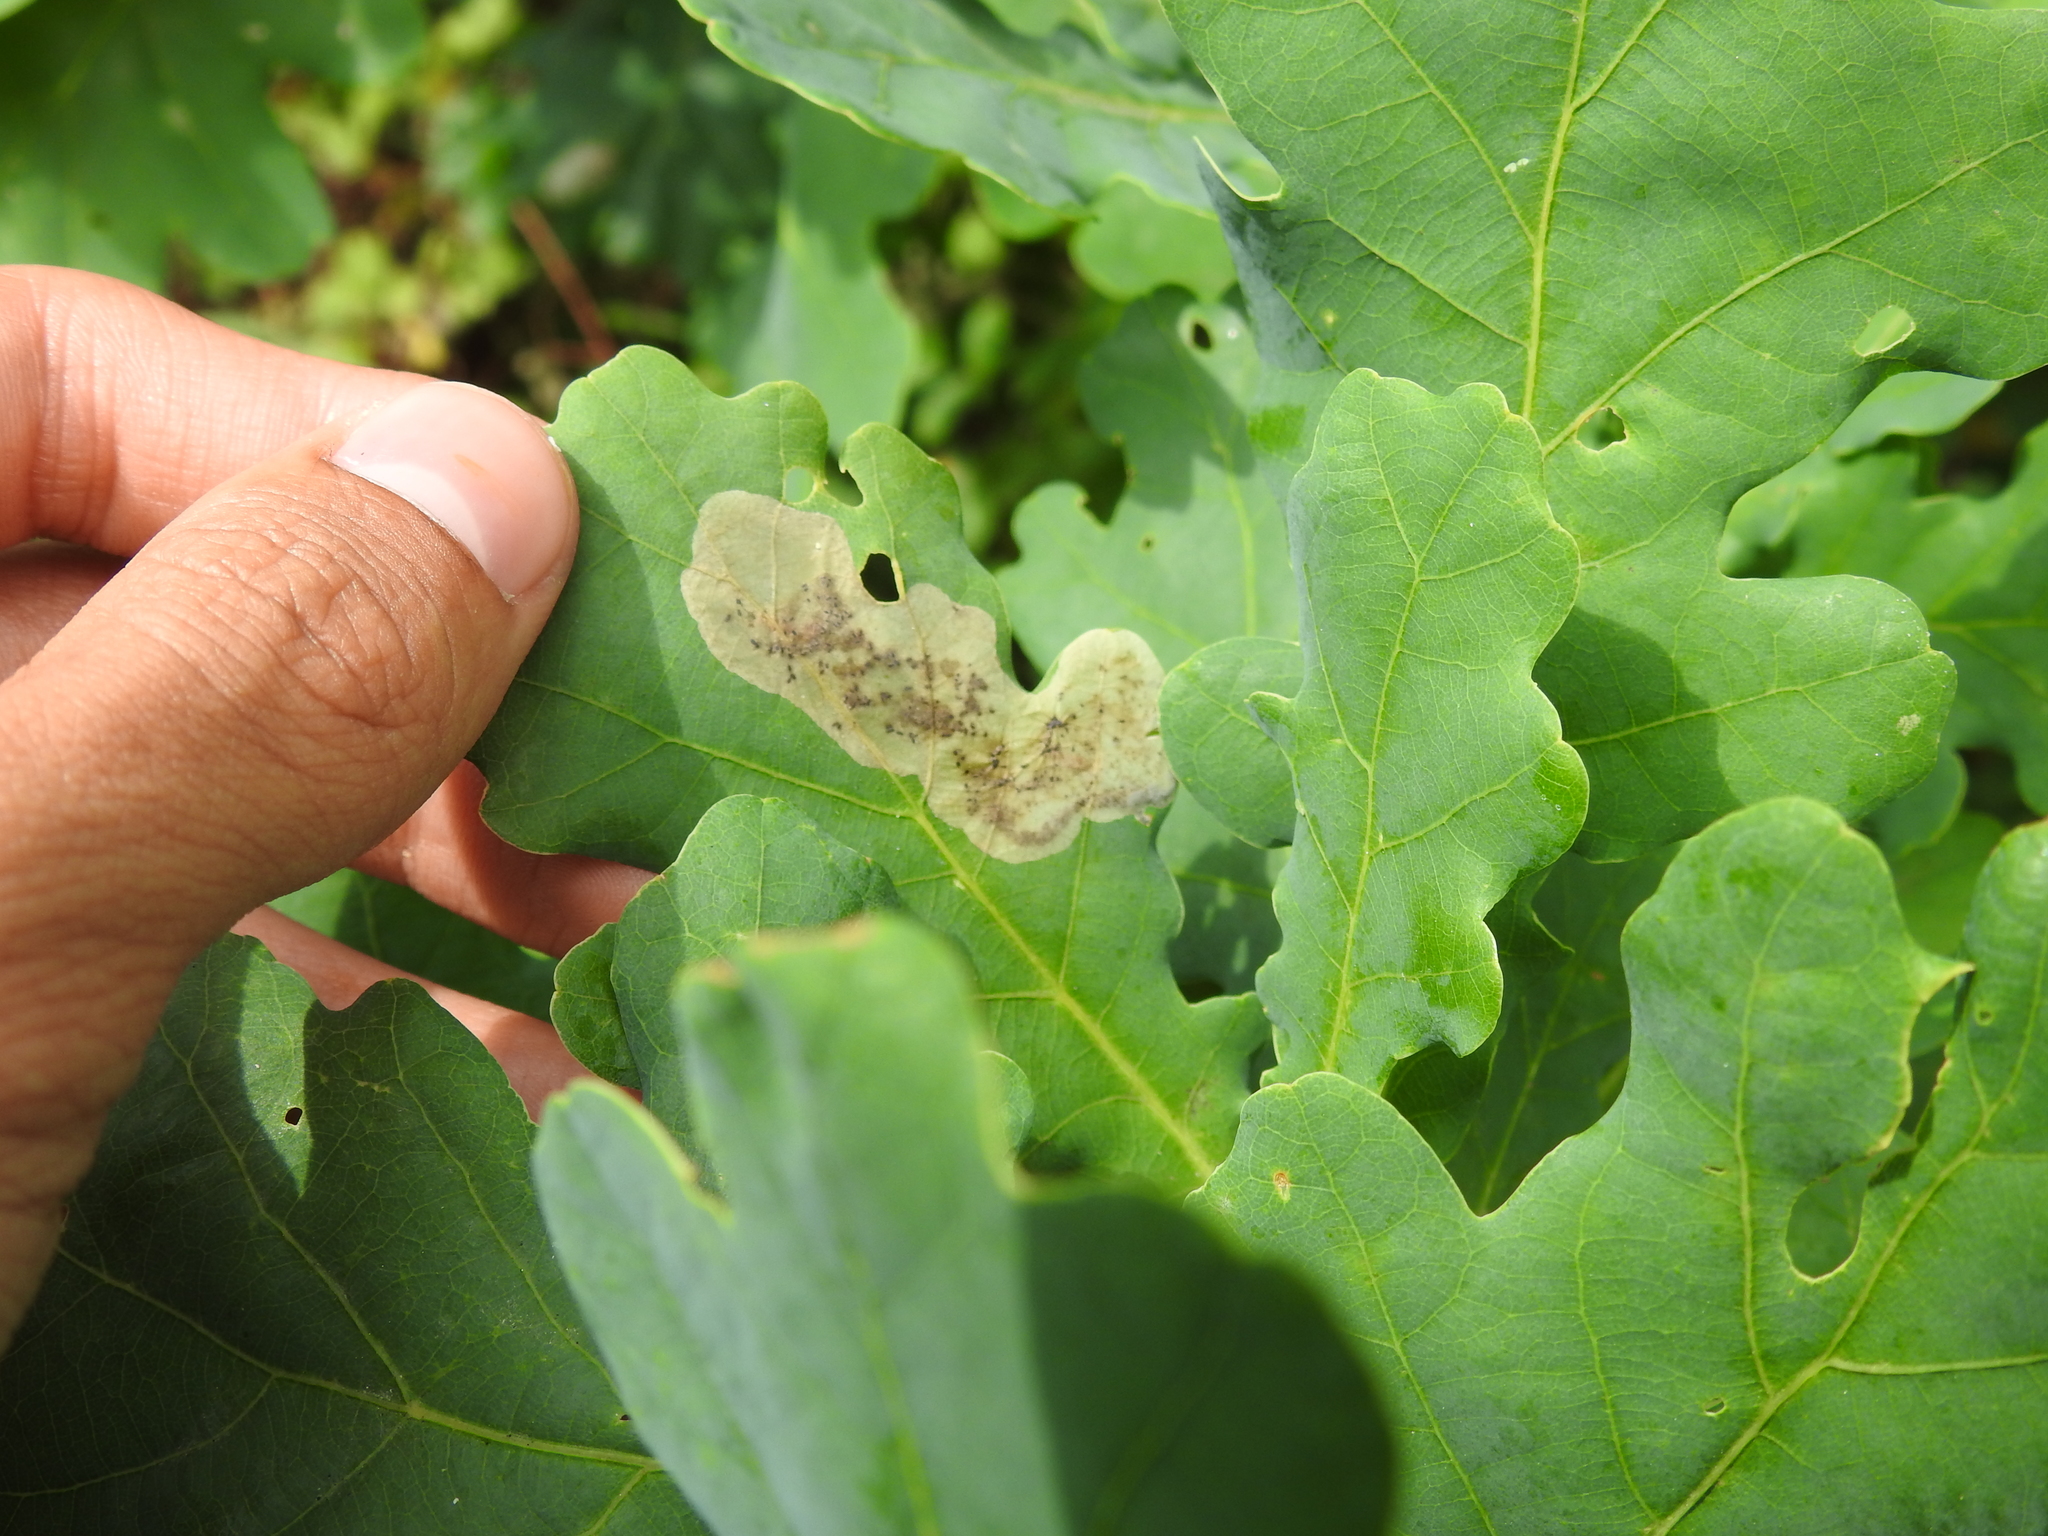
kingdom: Animalia
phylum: Arthropoda
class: Insecta
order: Hymenoptera
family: Tenthredinidae
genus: Profenusa
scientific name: Profenusa pygmaea
